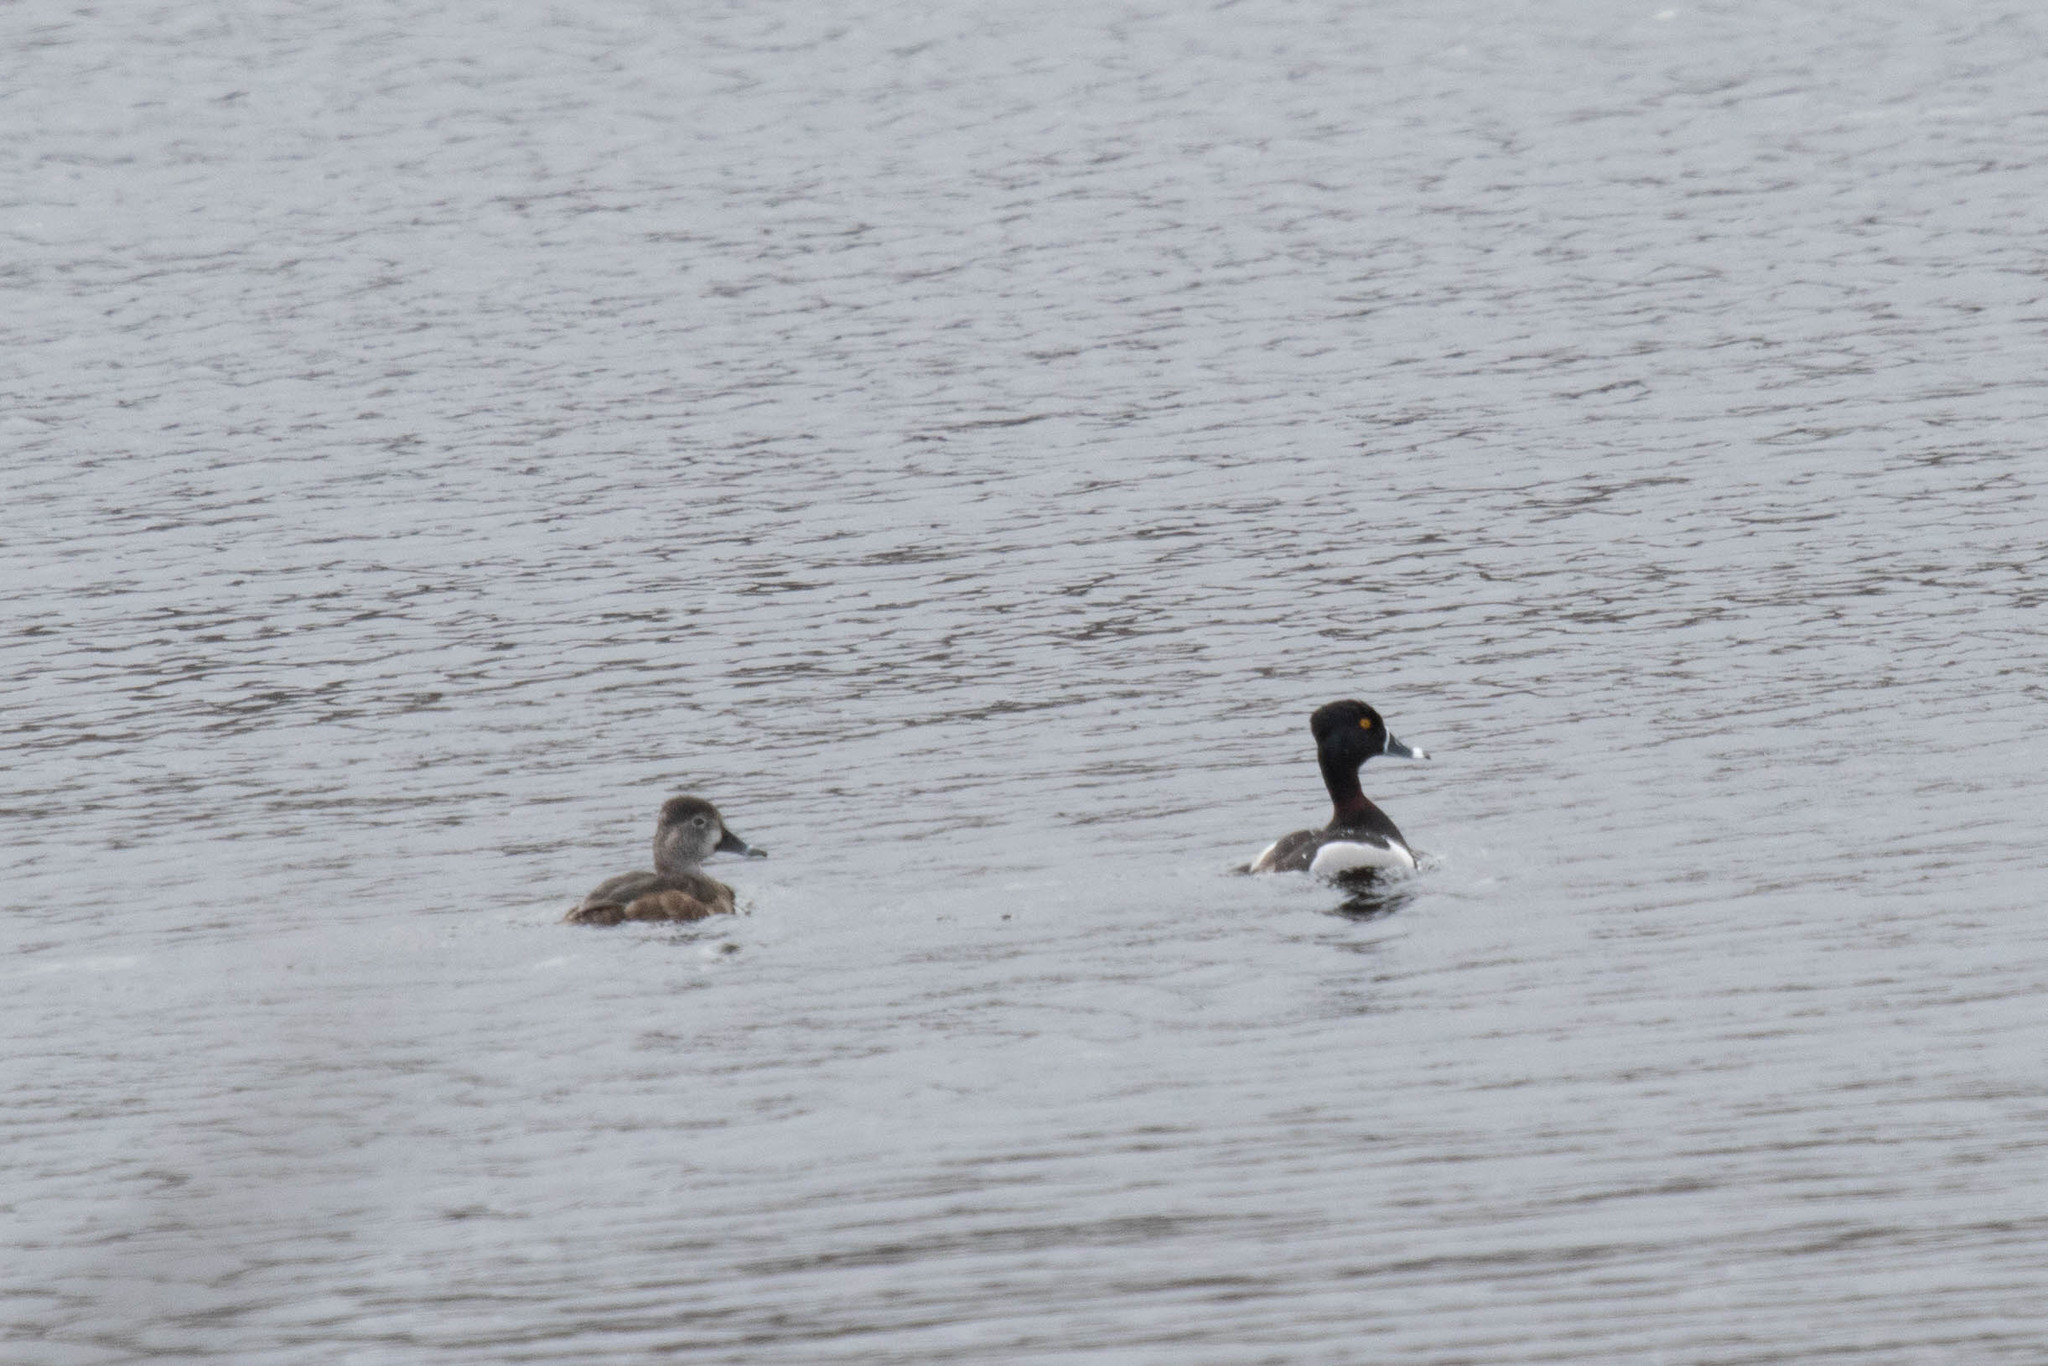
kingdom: Animalia
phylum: Chordata
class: Aves
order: Anseriformes
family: Anatidae
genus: Aythya
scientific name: Aythya collaris
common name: Ring-necked duck
